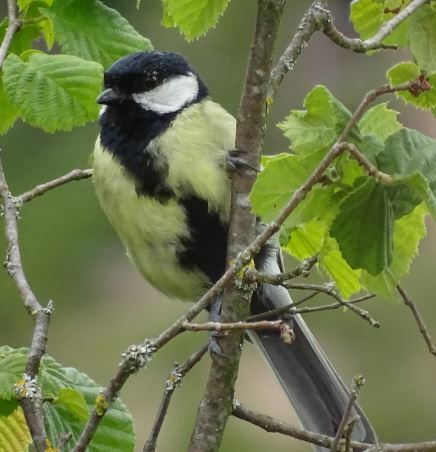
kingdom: Animalia
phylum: Chordata
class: Aves
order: Passeriformes
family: Paridae
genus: Parus
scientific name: Parus major
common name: Great tit
